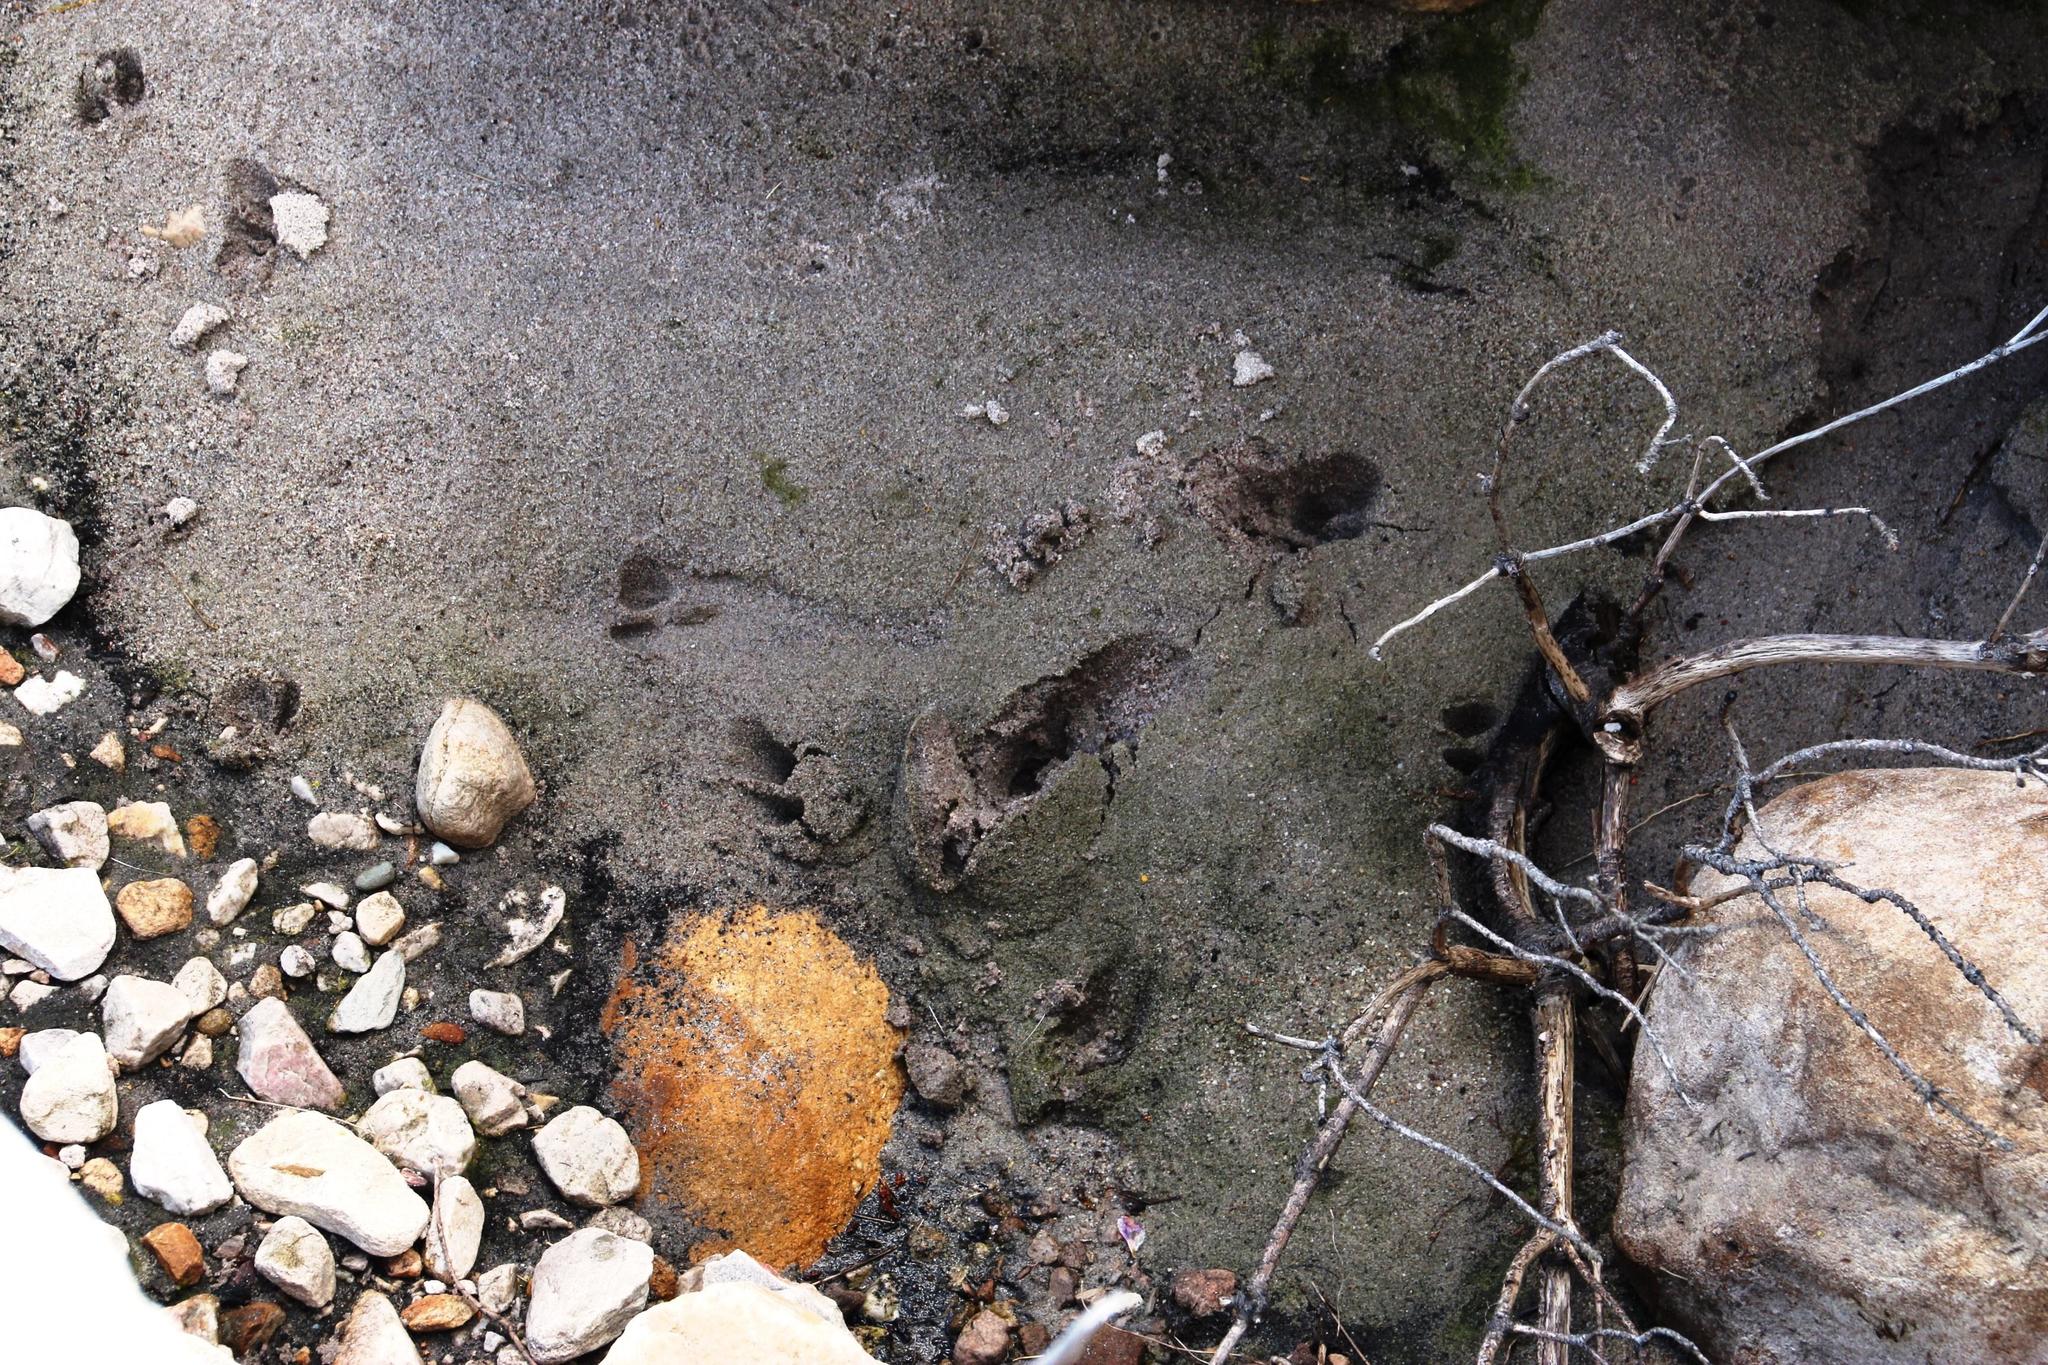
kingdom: Animalia
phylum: Chordata
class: Mammalia
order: Artiodactyla
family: Bovidae
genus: Oreotragus
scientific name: Oreotragus oreotragus
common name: Klipspringer
